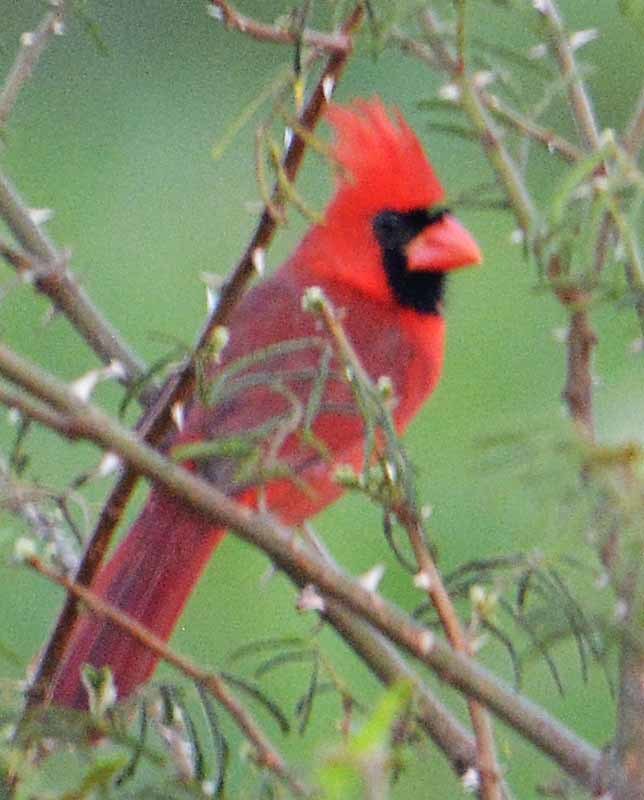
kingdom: Animalia
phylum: Chordata
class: Aves
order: Passeriformes
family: Cardinalidae
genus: Cardinalis
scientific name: Cardinalis cardinalis
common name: Northern cardinal
